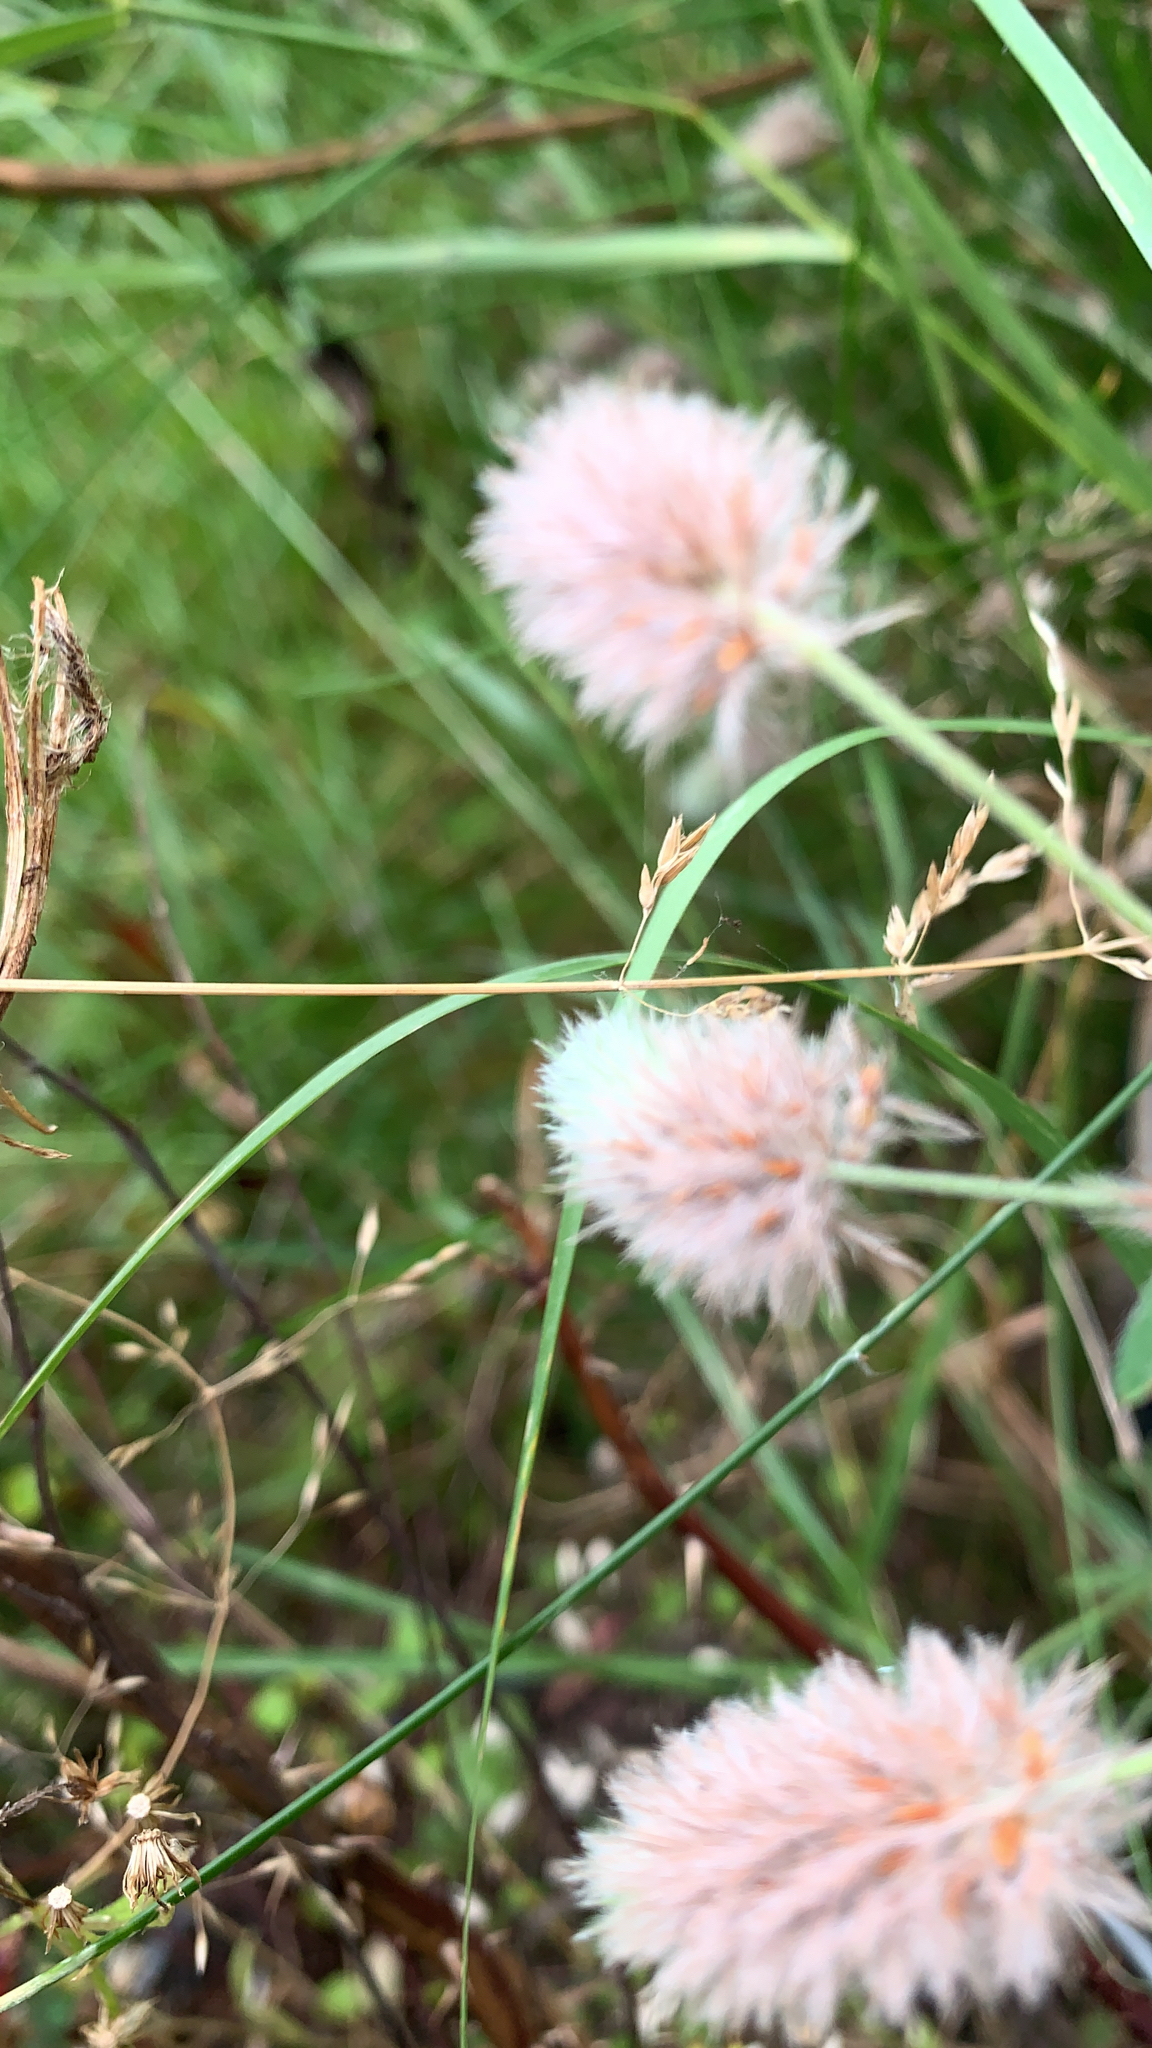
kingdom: Plantae
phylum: Tracheophyta
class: Magnoliopsida
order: Fabales
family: Fabaceae
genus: Trifolium
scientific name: Trifolium arvense
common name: Hare's-foot clover
